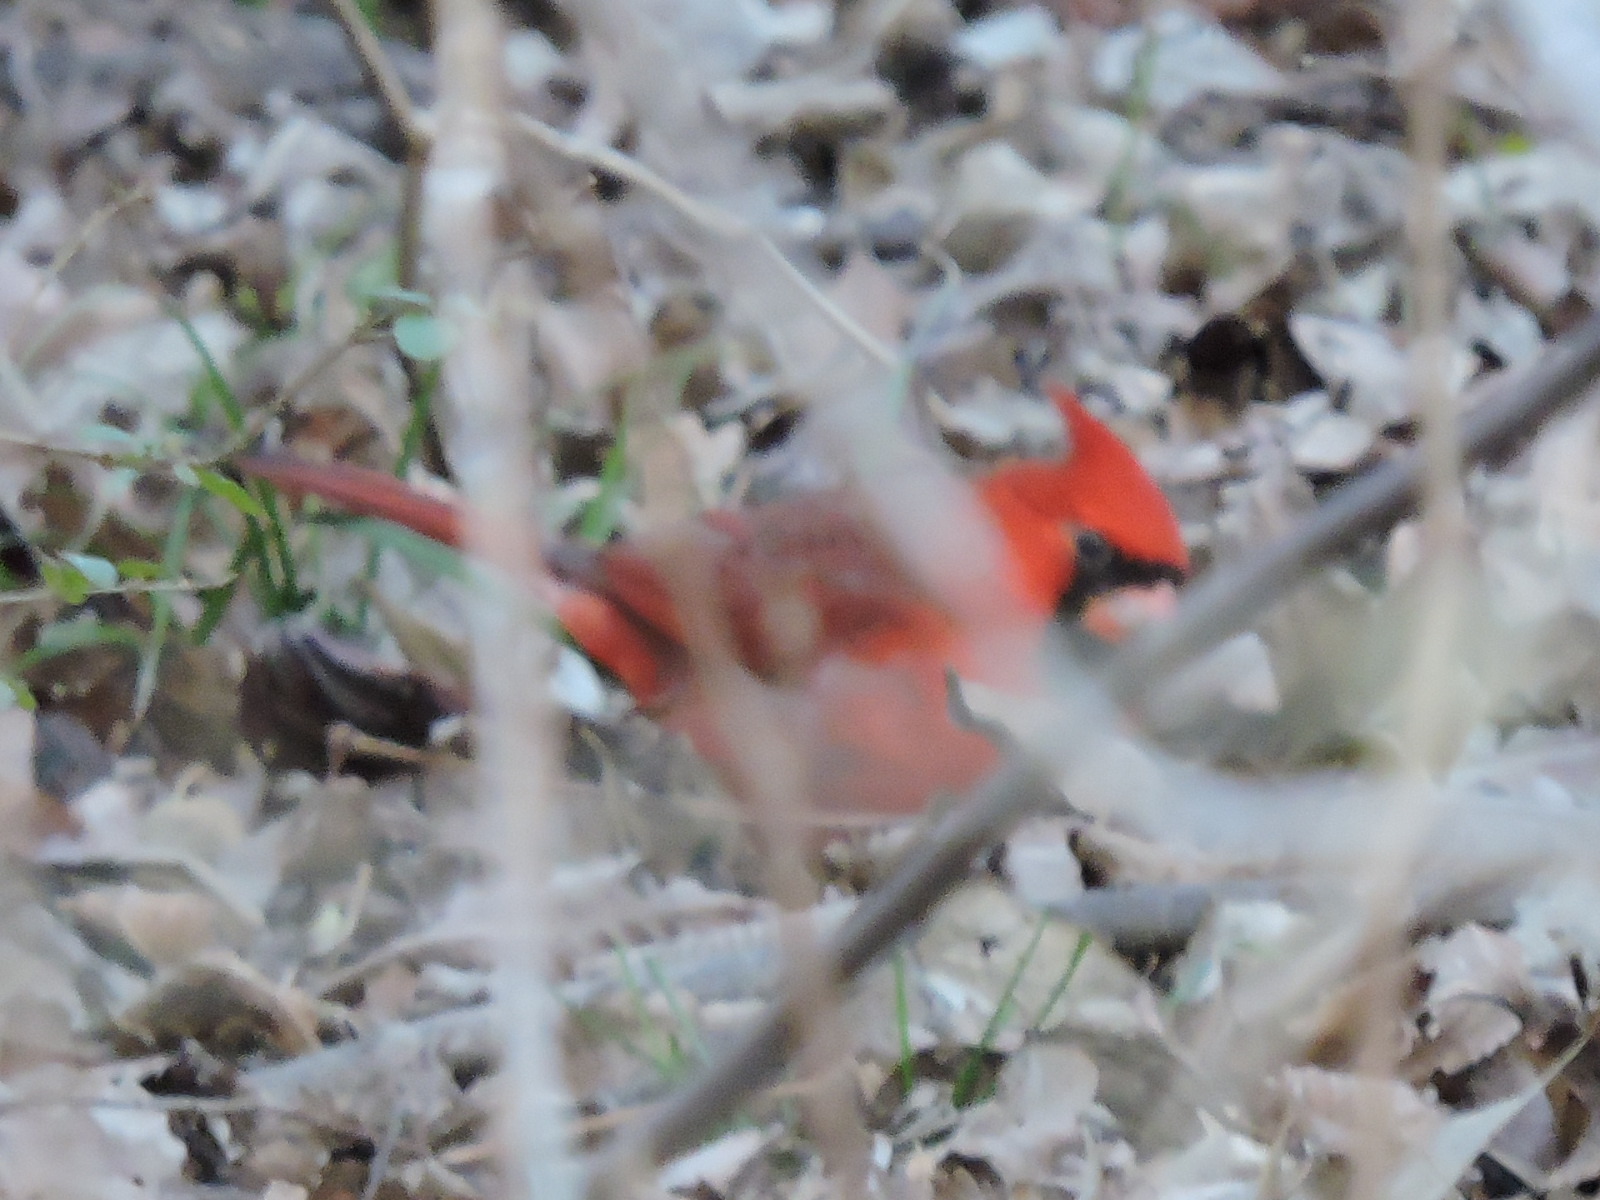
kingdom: Animalia
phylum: Chordata
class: Aves
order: Passeriformes
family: Cardinalidae
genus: Cardinalis
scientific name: Cardinalis cardinalis
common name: Northern cardinal
